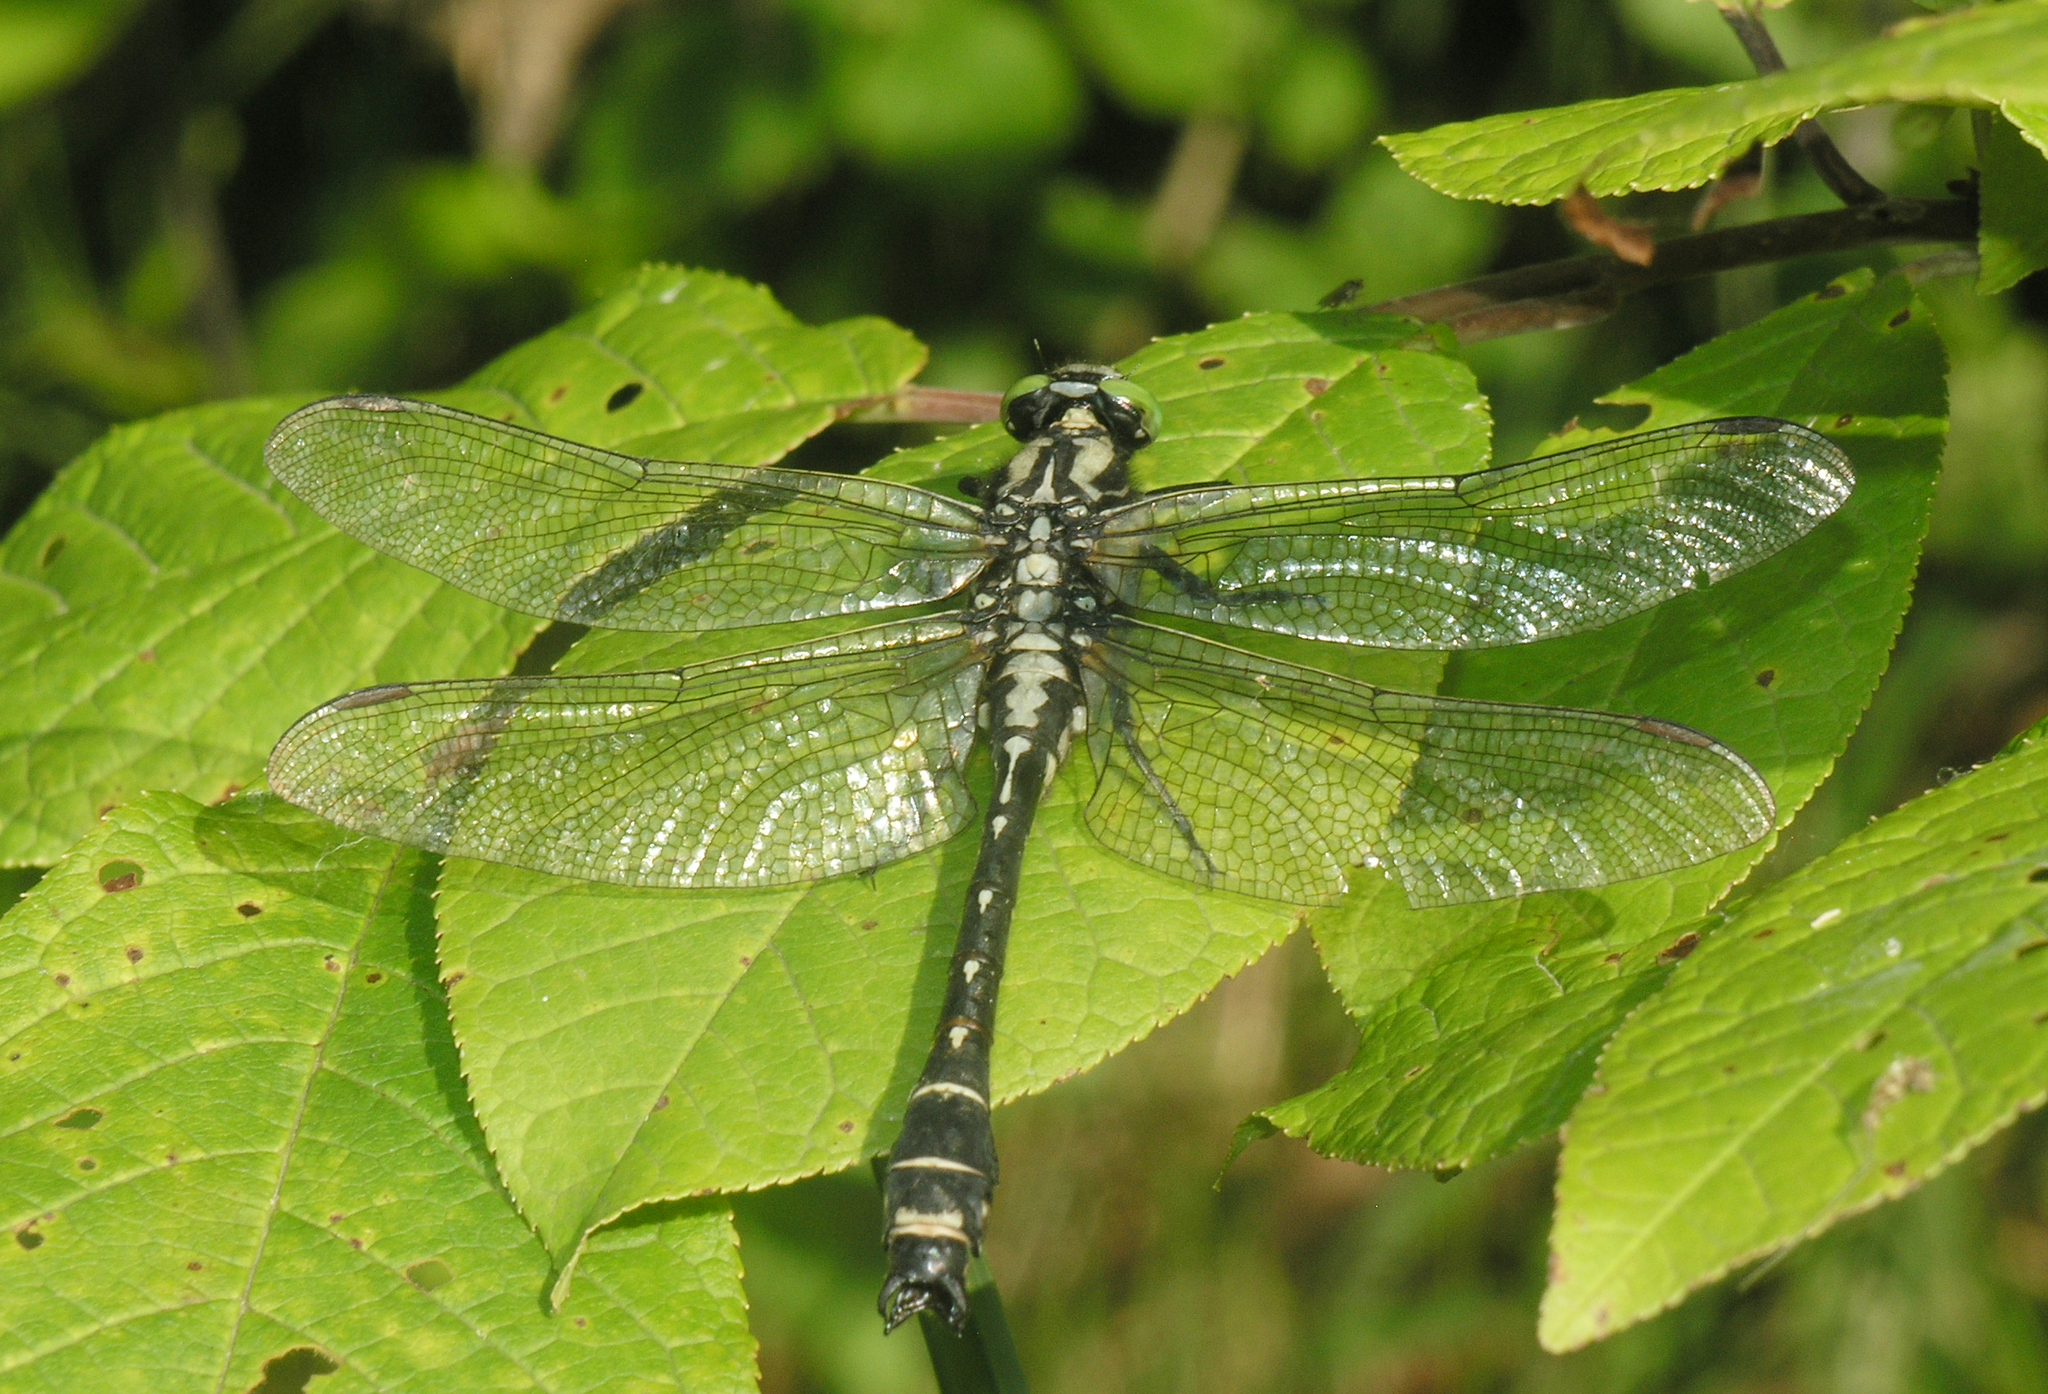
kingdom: Animalia
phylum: Arthropoda
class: Insecta
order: Odonata
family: Gomphidae
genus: Shaogomphus
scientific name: Shaogomphus postocularis
